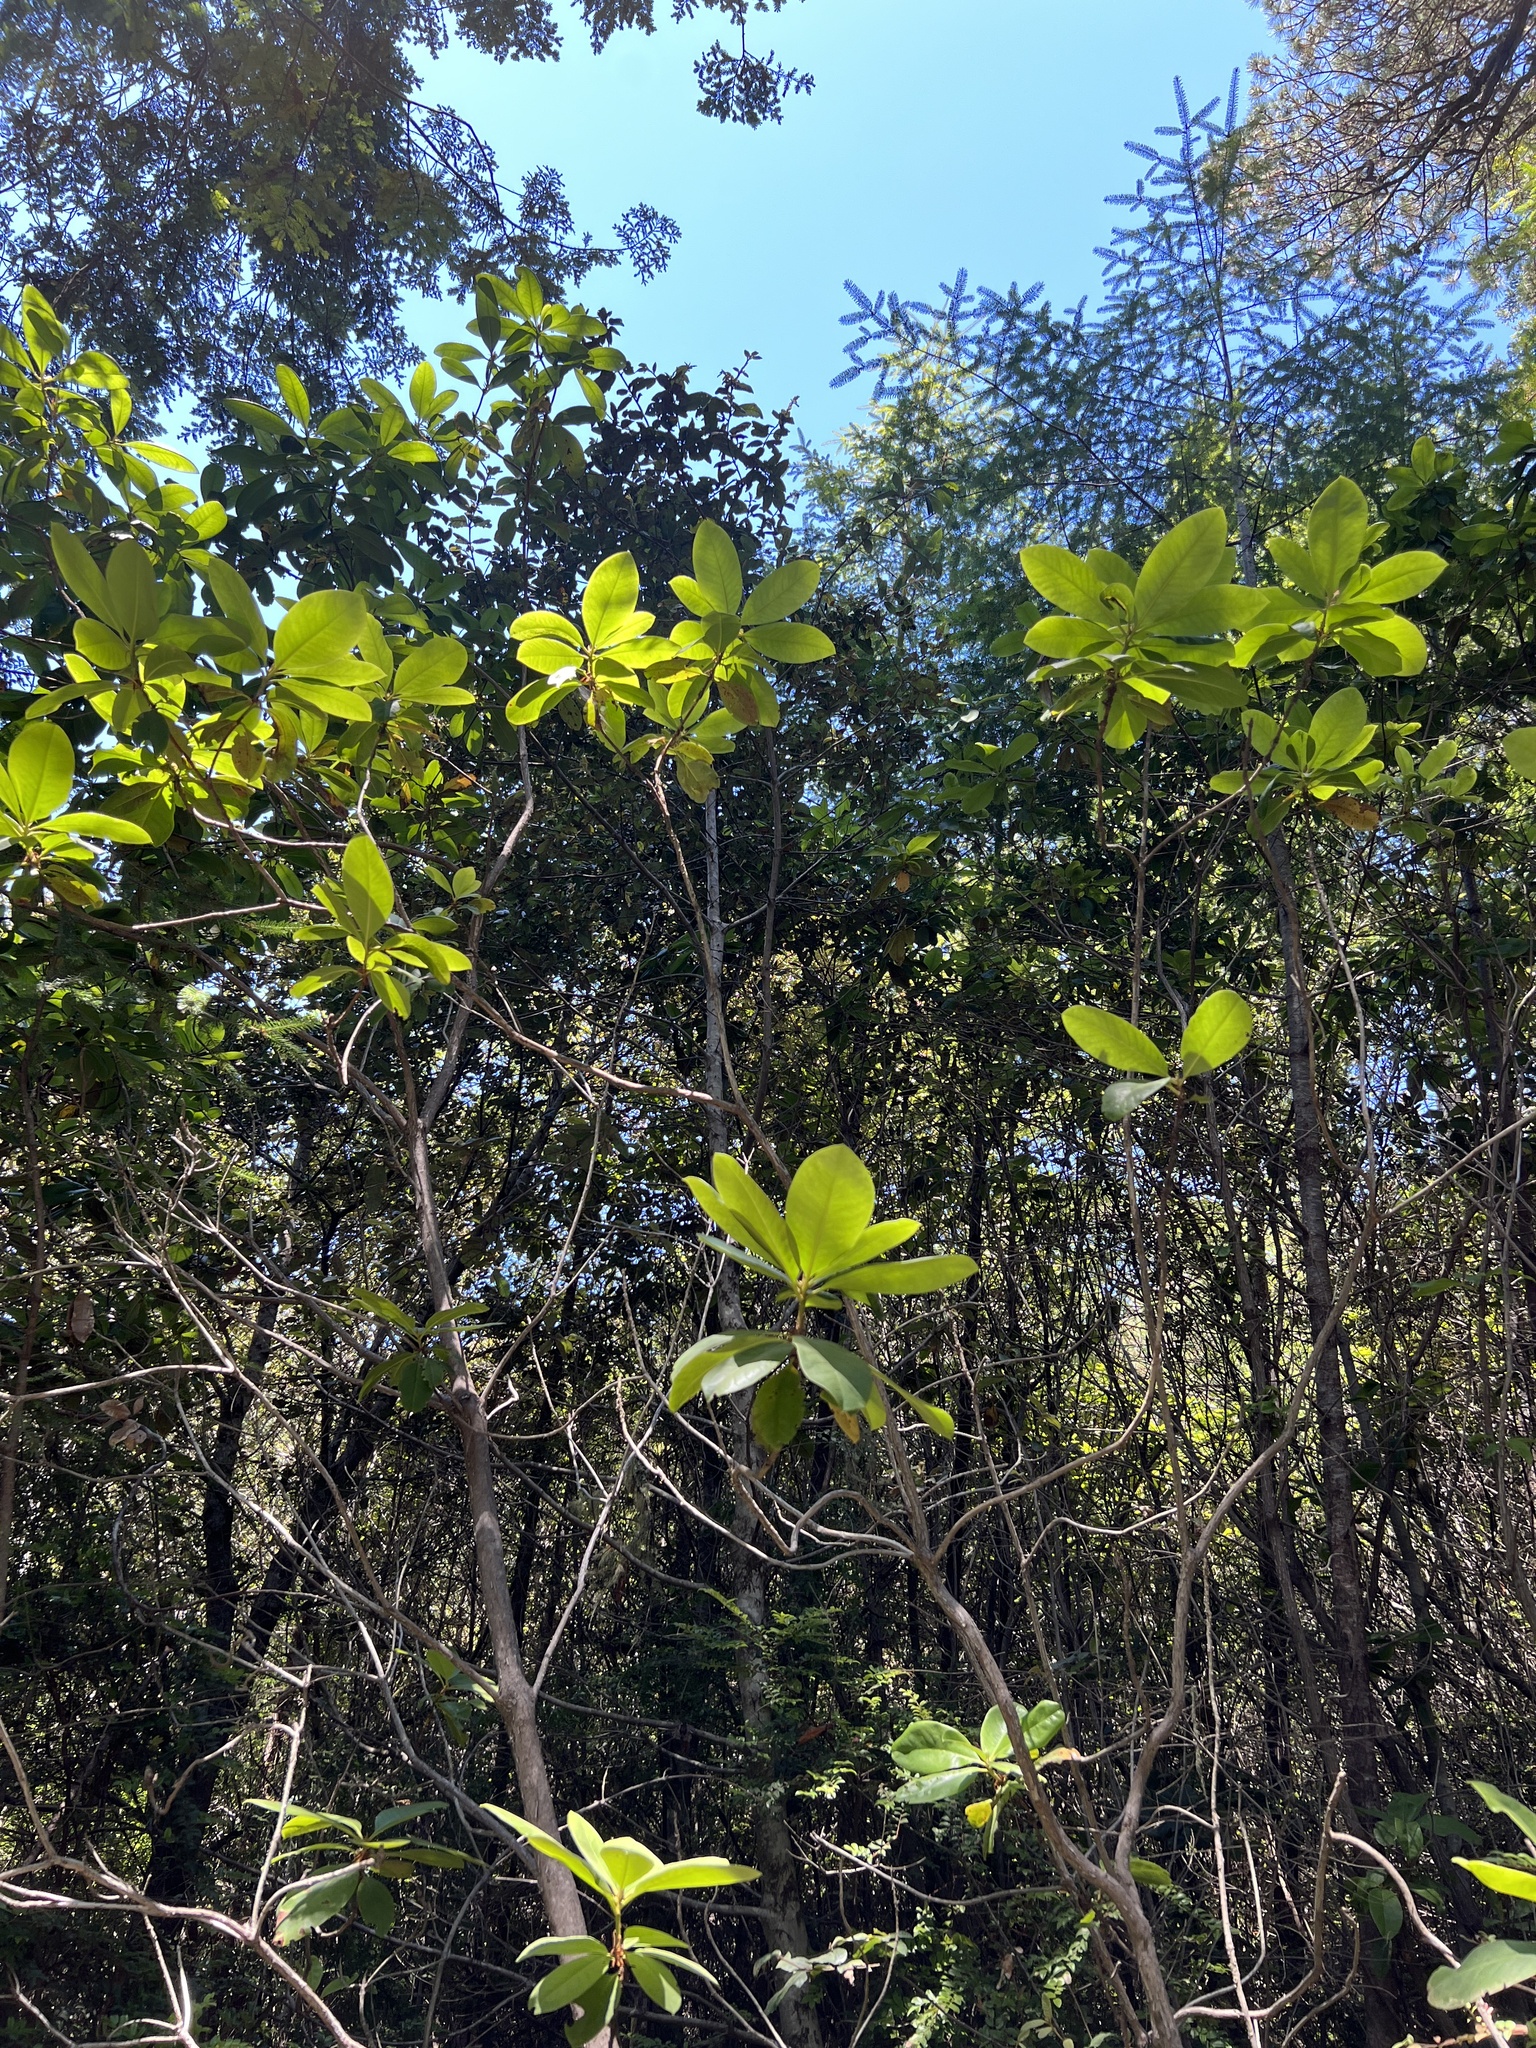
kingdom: Plantae
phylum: Tracheophyta
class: Magnoliopsida
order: Ericales
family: Ericaceae
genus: Rhododendron
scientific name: Rhododendron macrophyllum
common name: California rose bay
